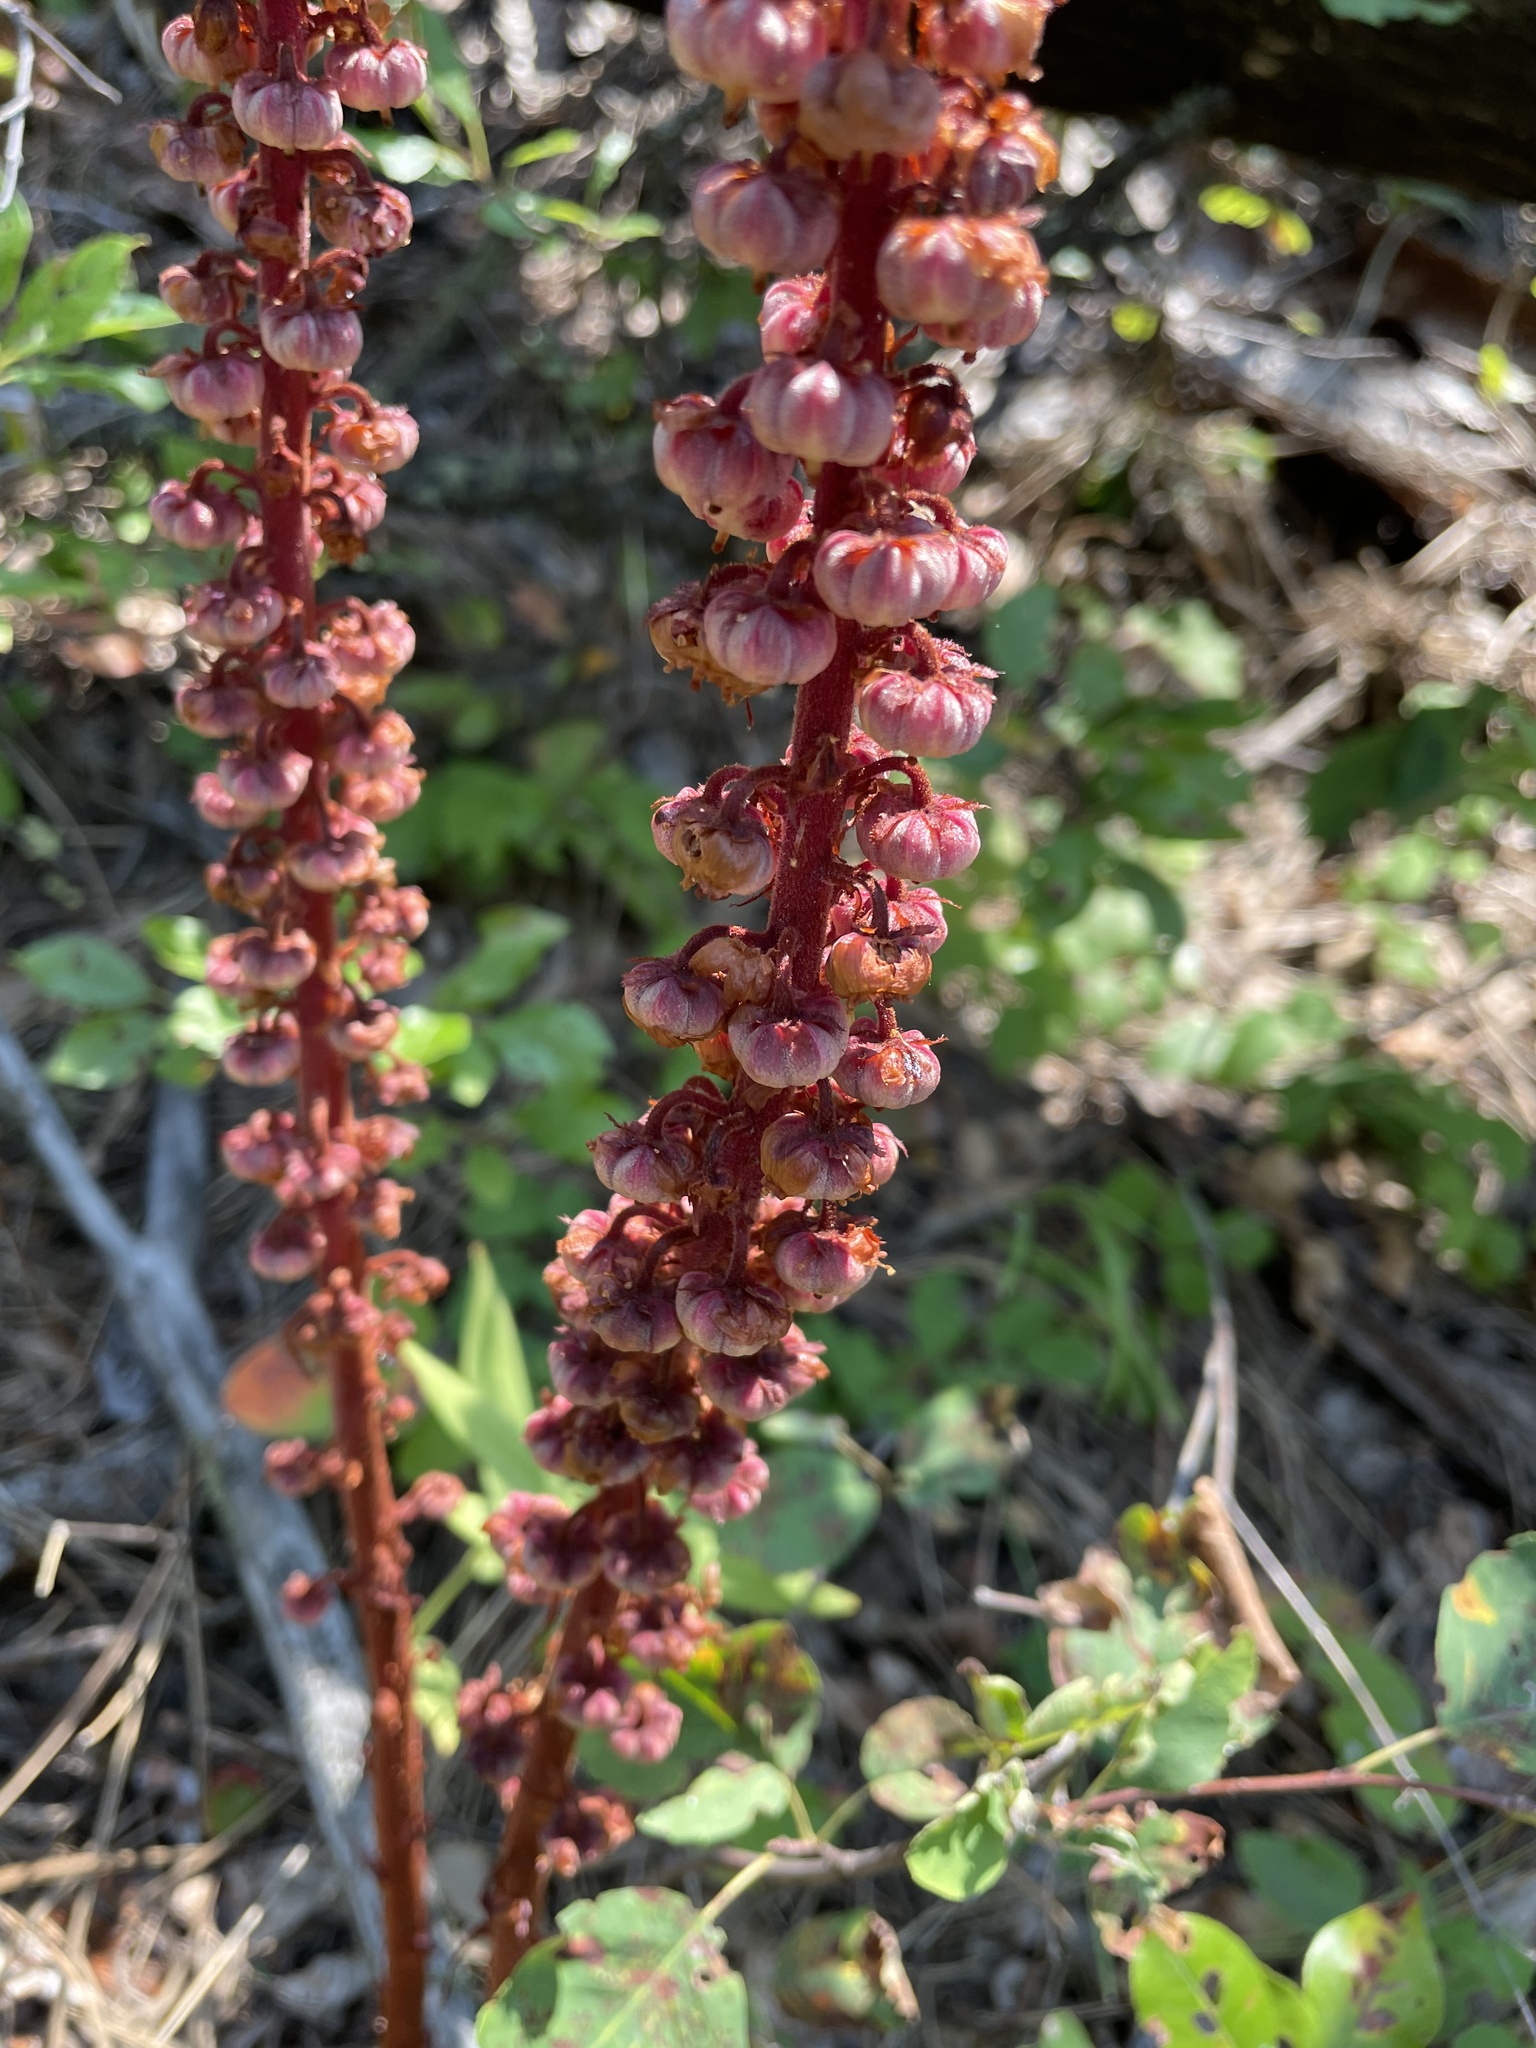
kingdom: Plantae
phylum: Tracheophyta
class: Magnoliopsida
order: Ericales
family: Ericaceae
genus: Pterospora
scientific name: Pterospora andromedea
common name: Giant bird's-nest
